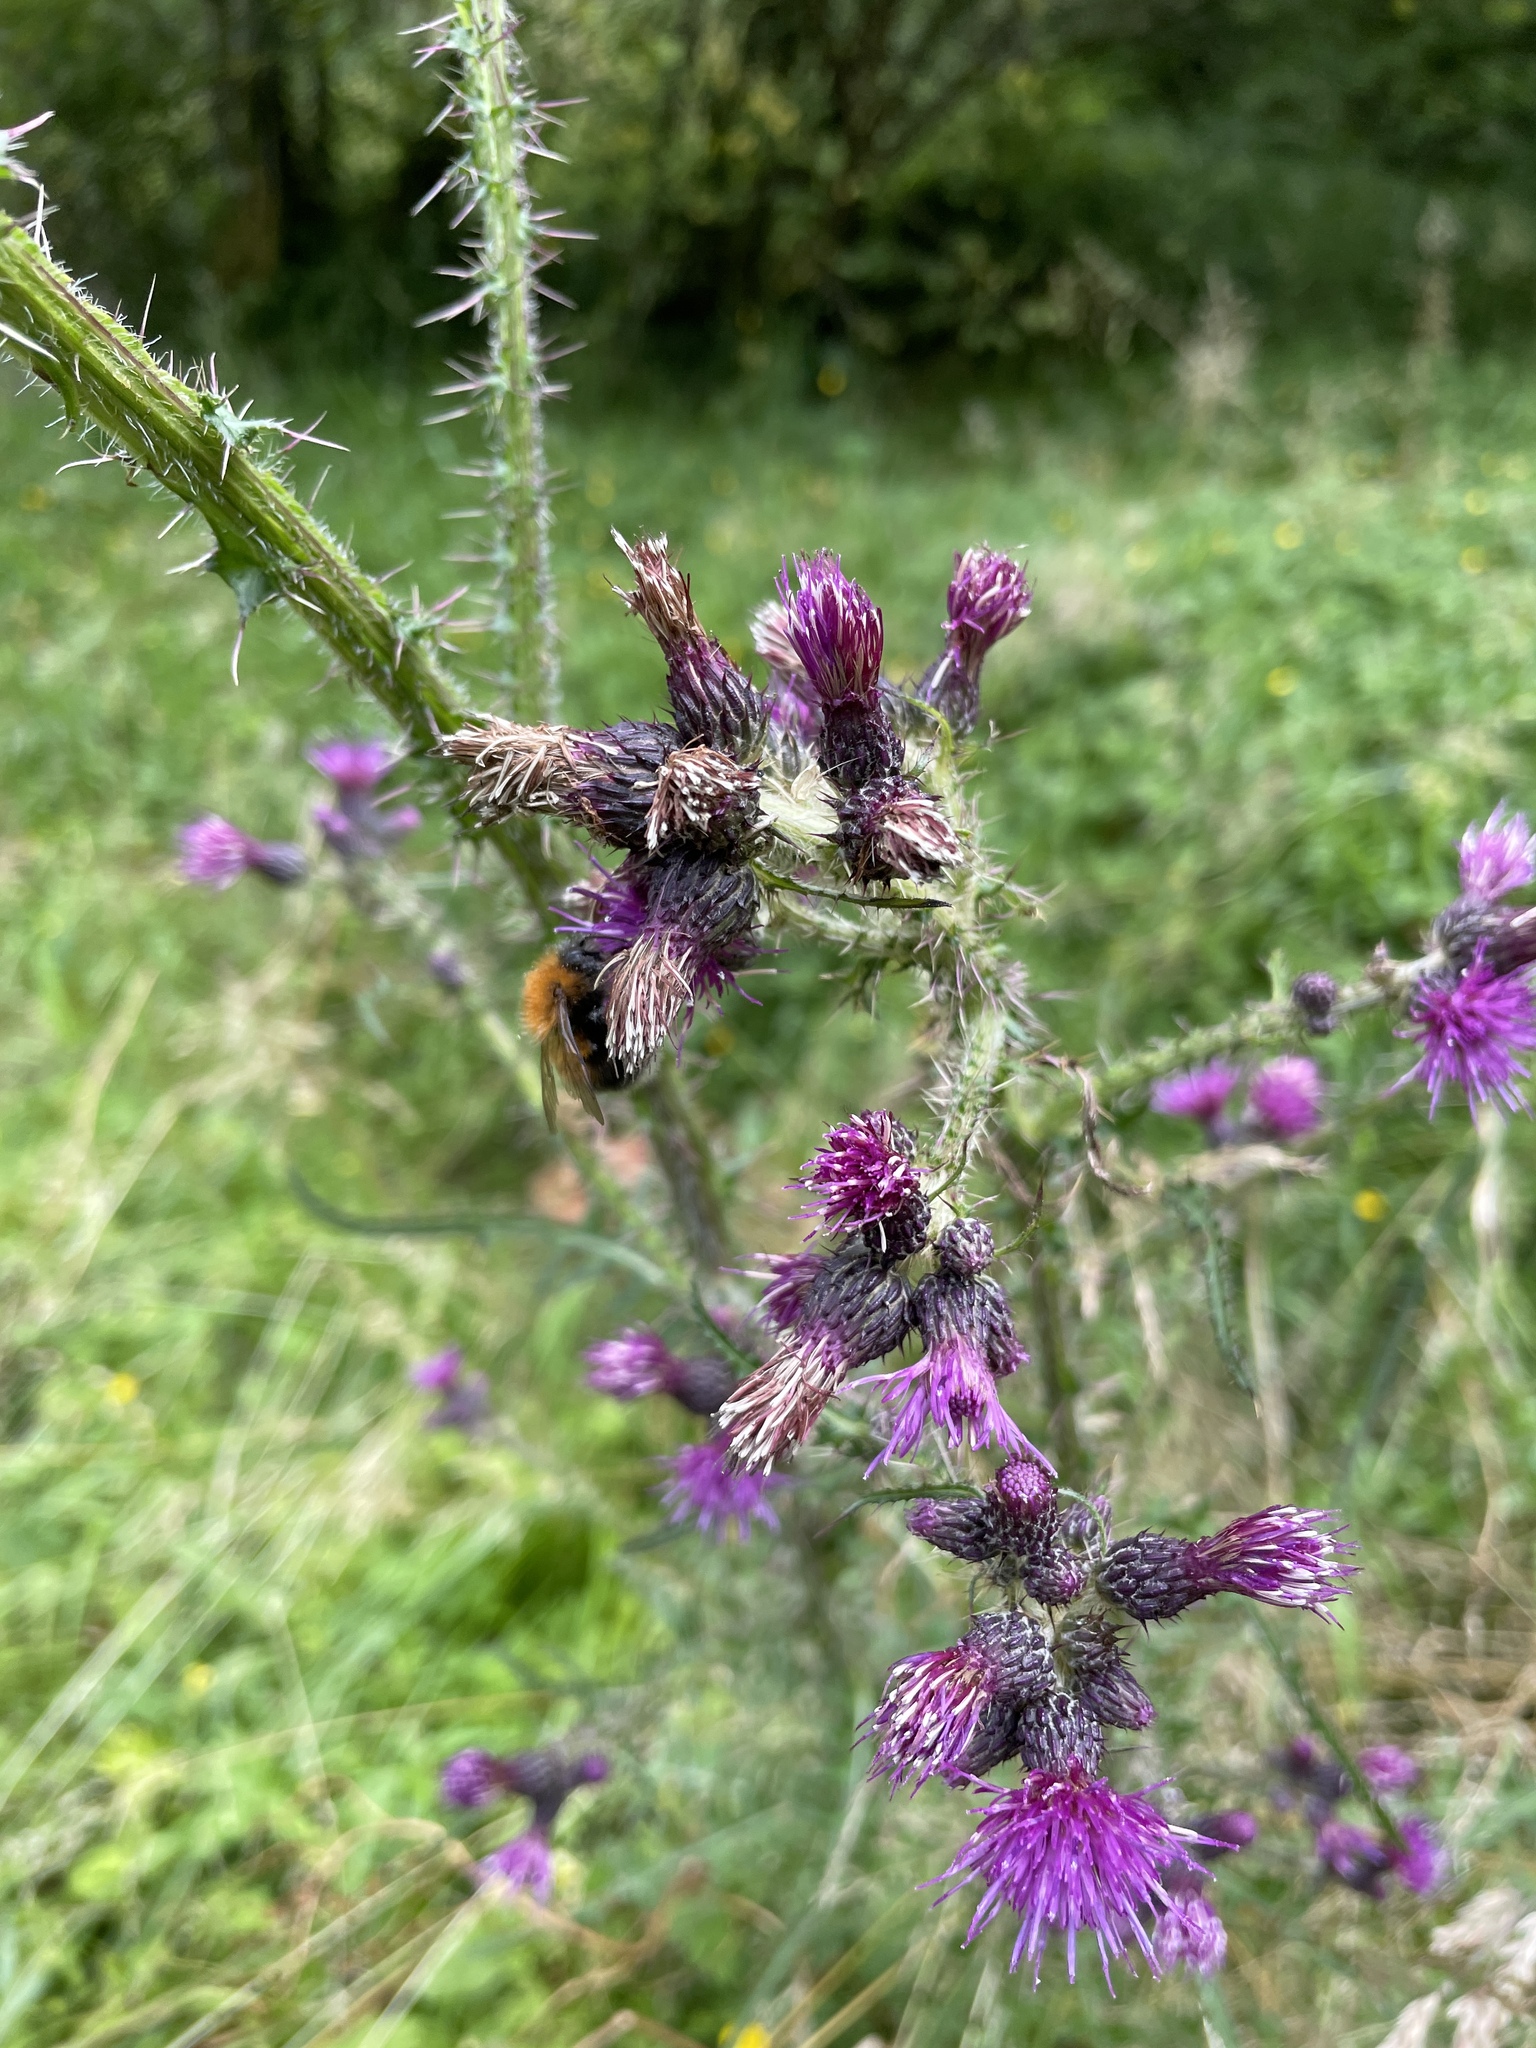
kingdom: Plantae
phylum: Tracheophyta
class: Magnoliopsida
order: Asterales
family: Asteraceae
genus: Cirsium
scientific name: Cirsium palustre
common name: Marsh thistle
